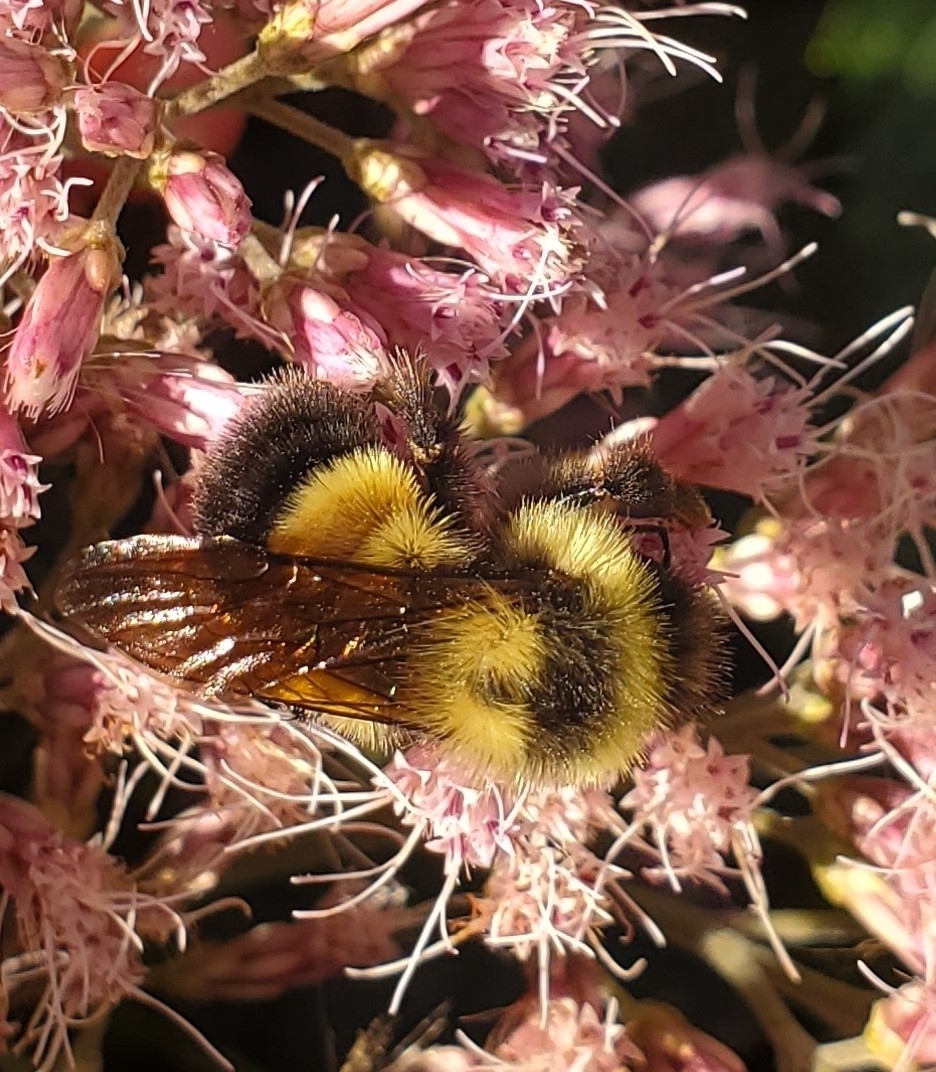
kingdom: Animalia
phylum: Arthropoda
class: Insecta
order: Hymenoptera
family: Apidae
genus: Bombus
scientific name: Bombus affinis
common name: Rusty patched bumble bee
